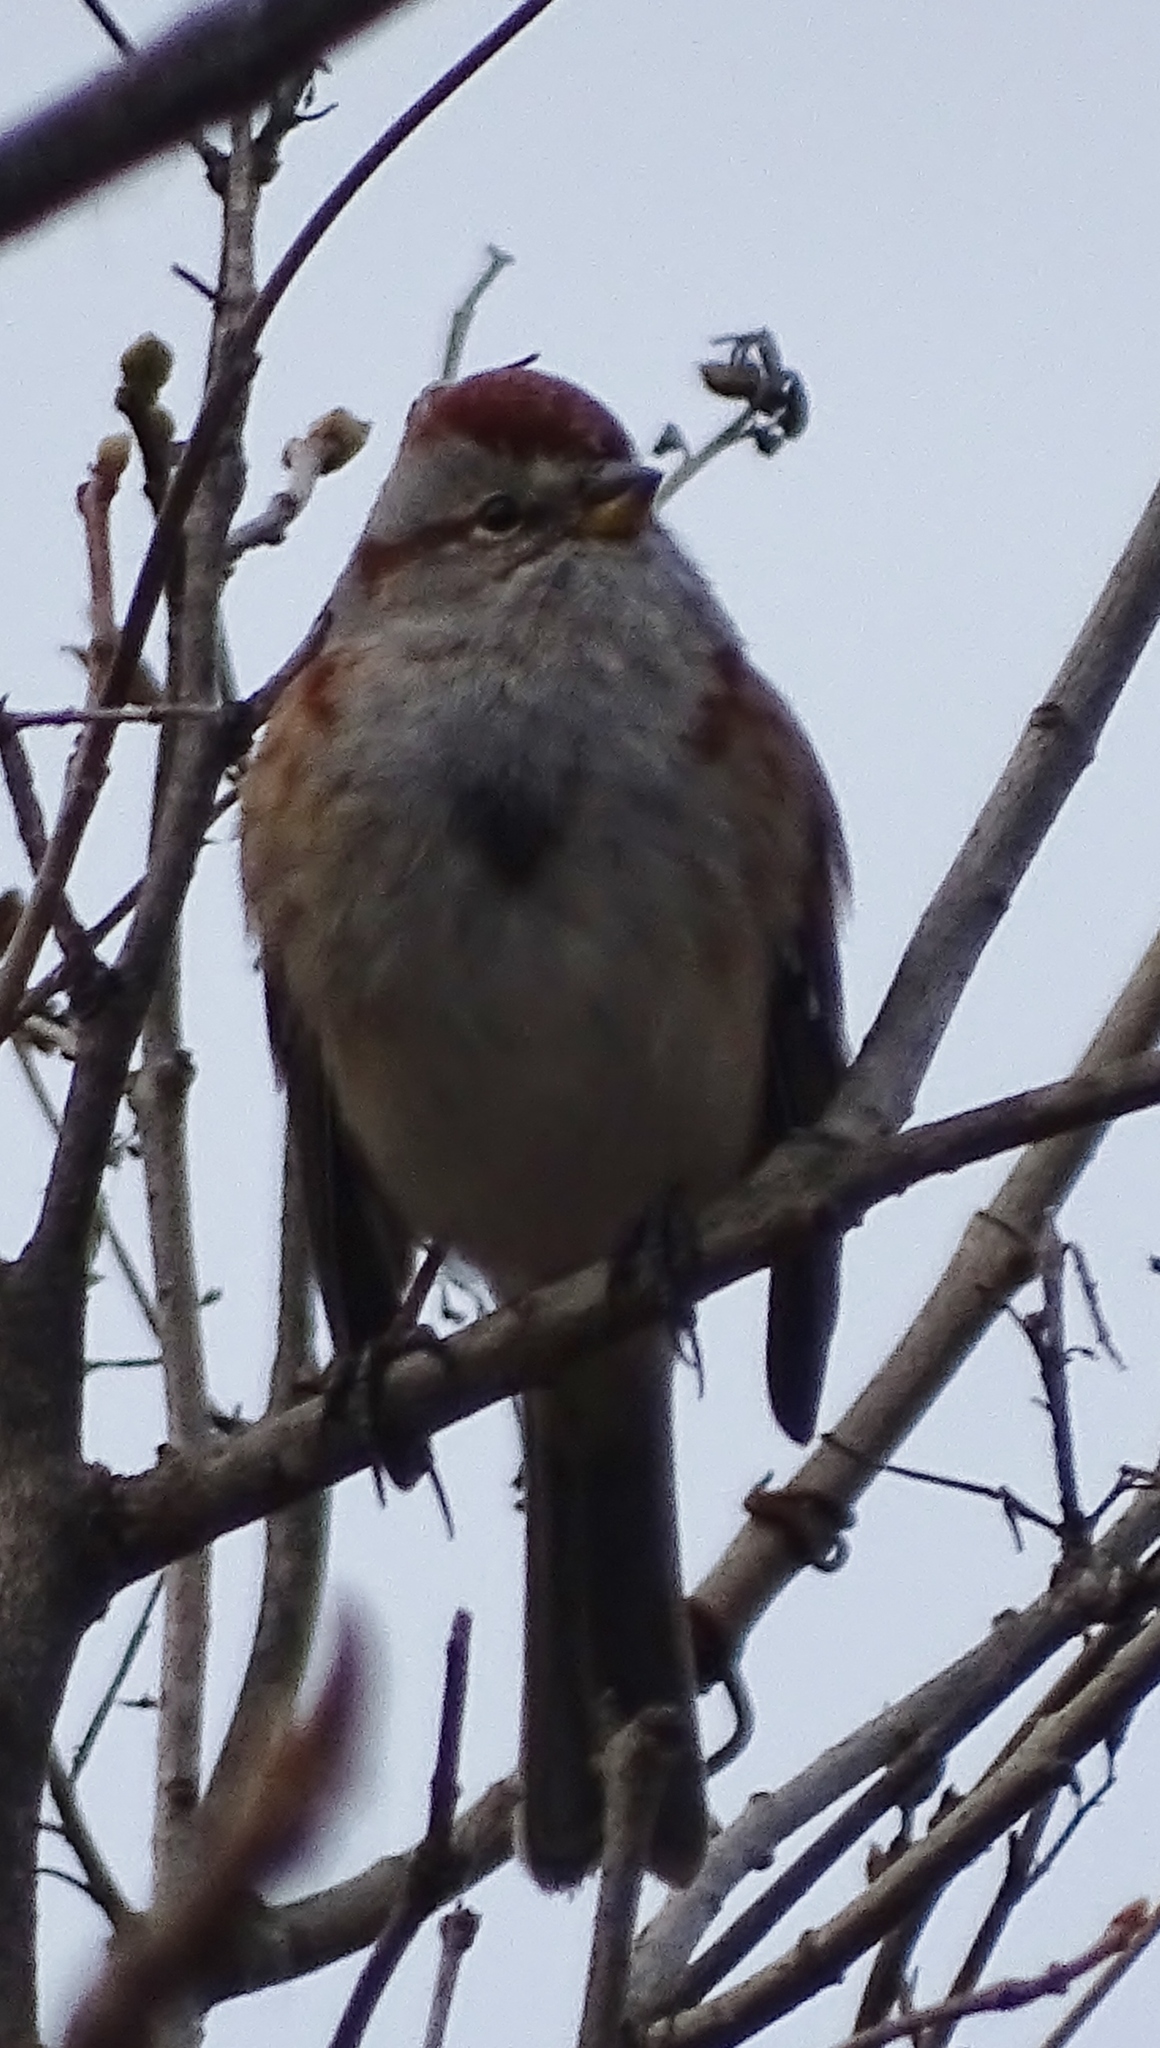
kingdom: Animalia
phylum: Chordata
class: Aves
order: Passeriformes
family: Passerellidae
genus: Spizelloides
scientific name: Spizelloides arborea
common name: American tree sparrow
